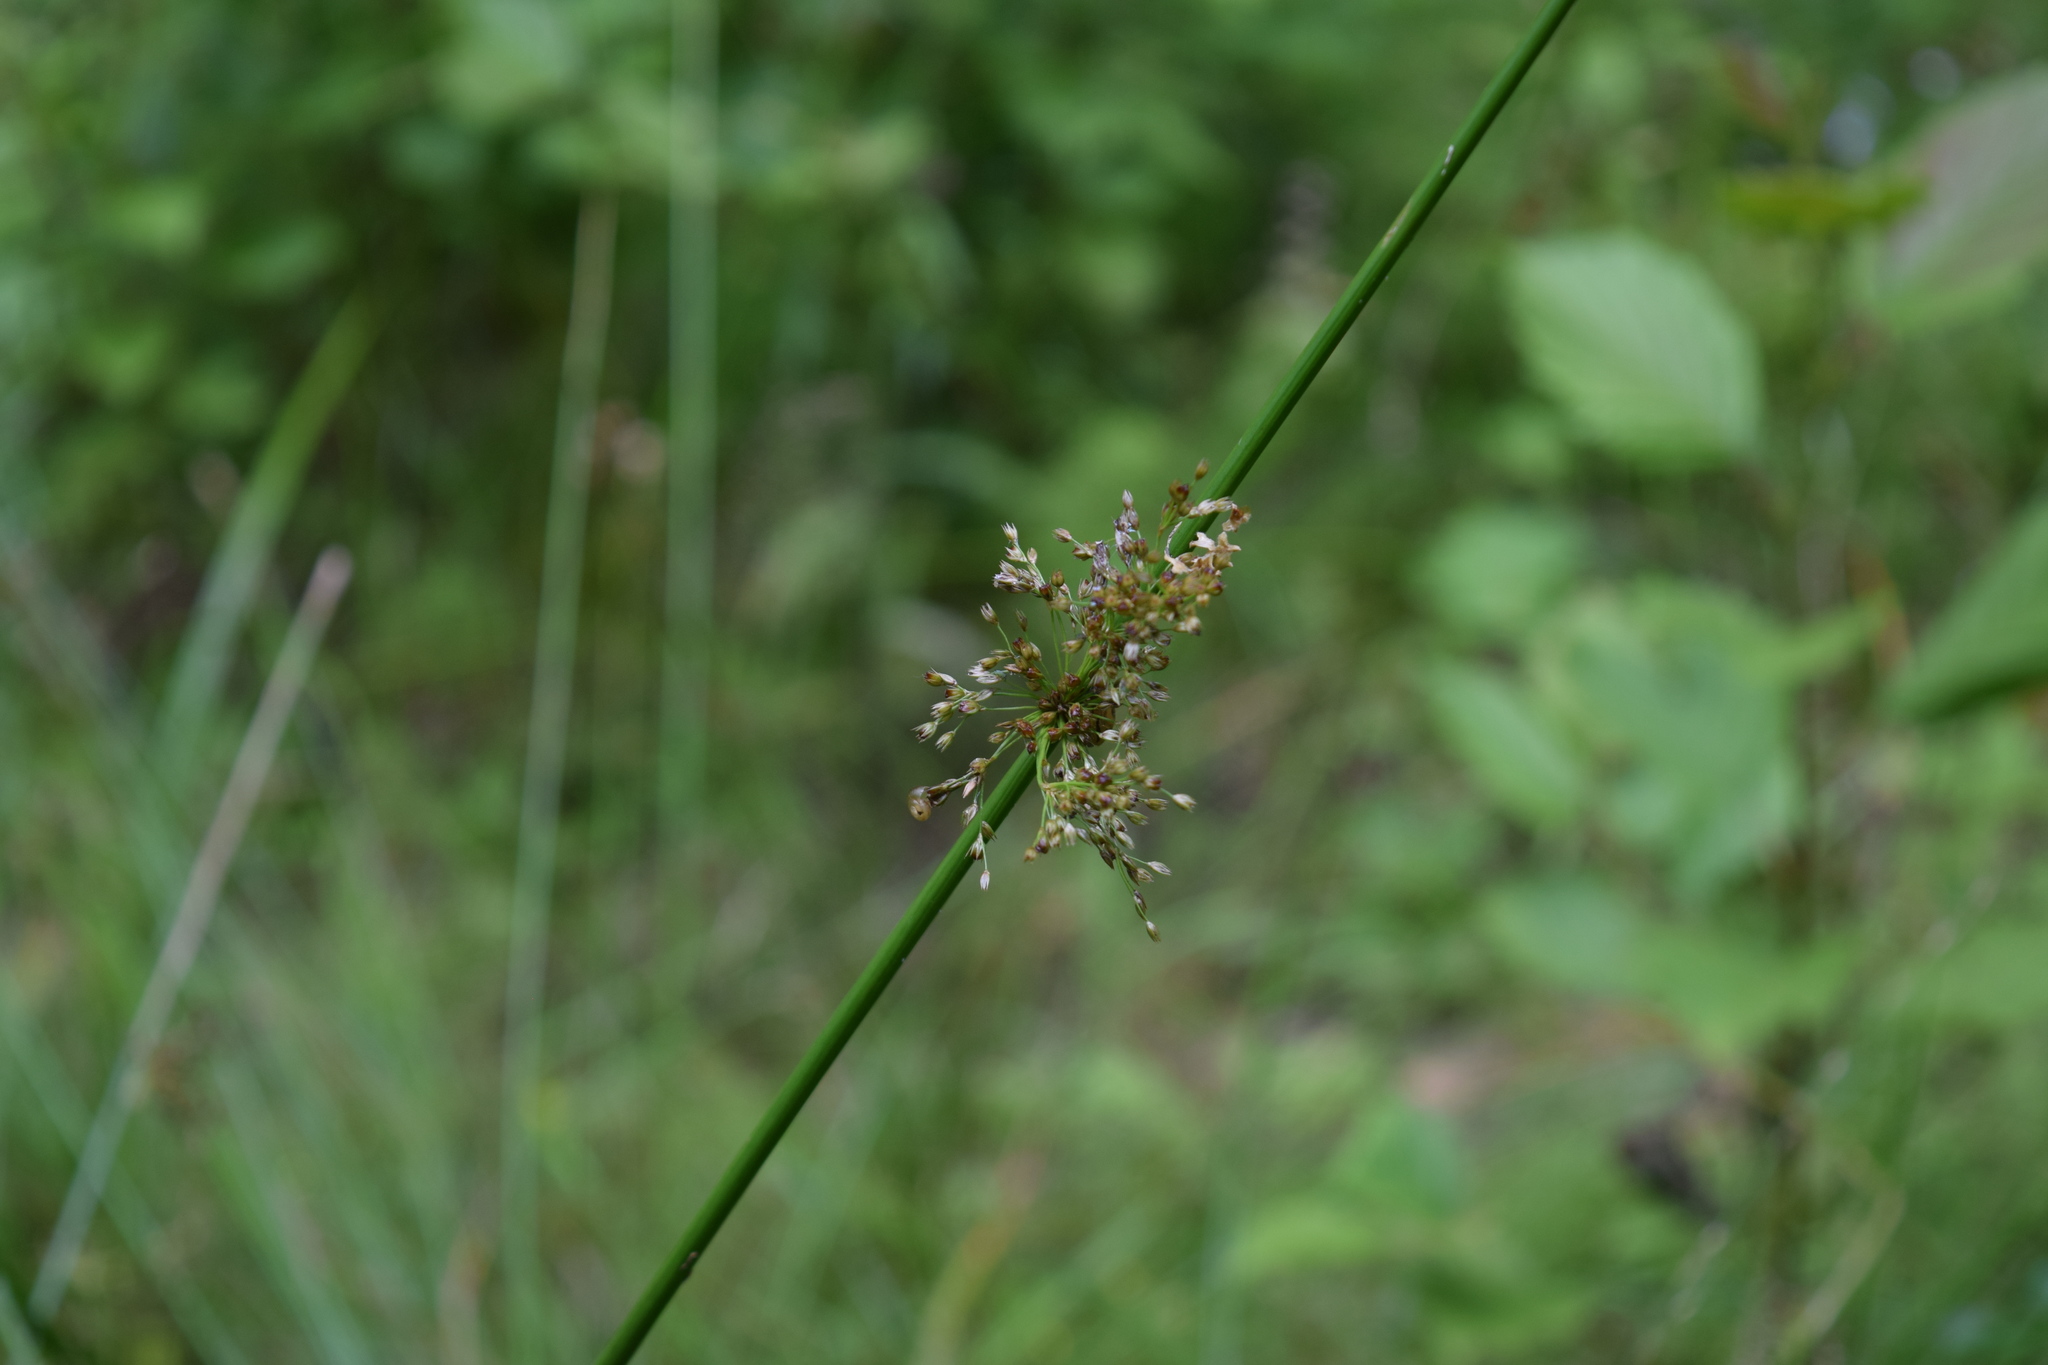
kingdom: Plantae
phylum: Tracheophyta
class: Liliopsida
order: Poales
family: Juncaceae
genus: Juncus
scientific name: Juncus effusus
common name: Soft rush
